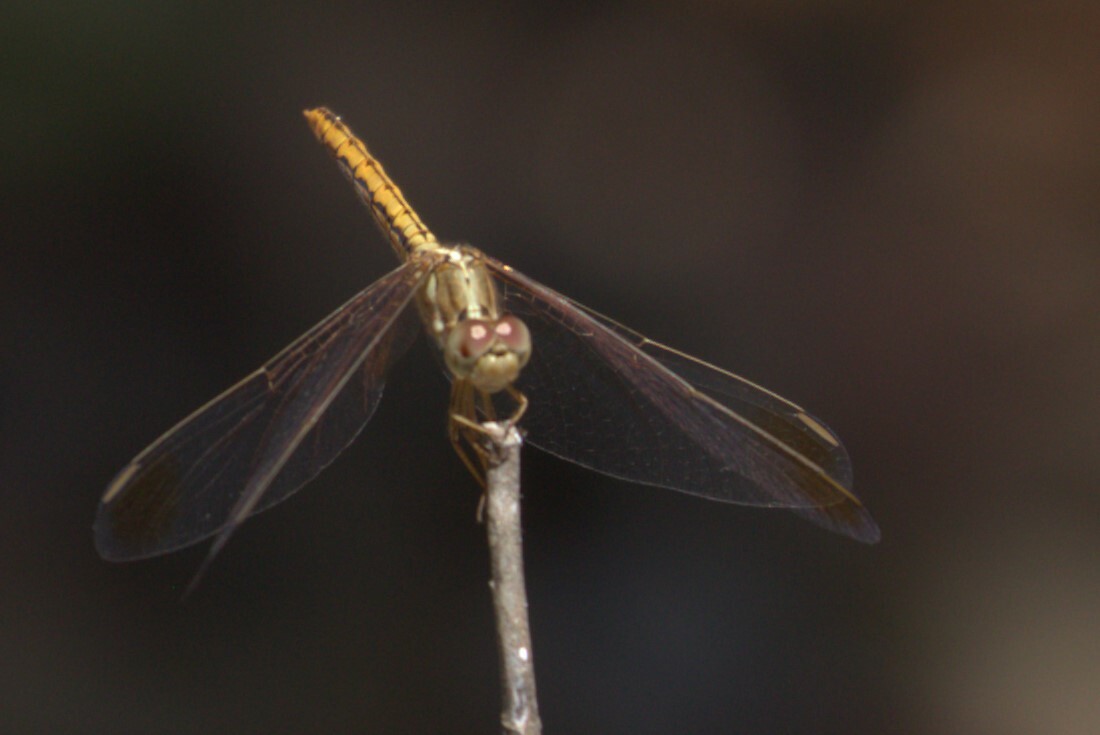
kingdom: Animalia
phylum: Arthropoda
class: Insecta
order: Odonata
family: Libellulidae
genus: Diplacodes
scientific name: Diplacodes haematodes
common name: Scarlet percher
